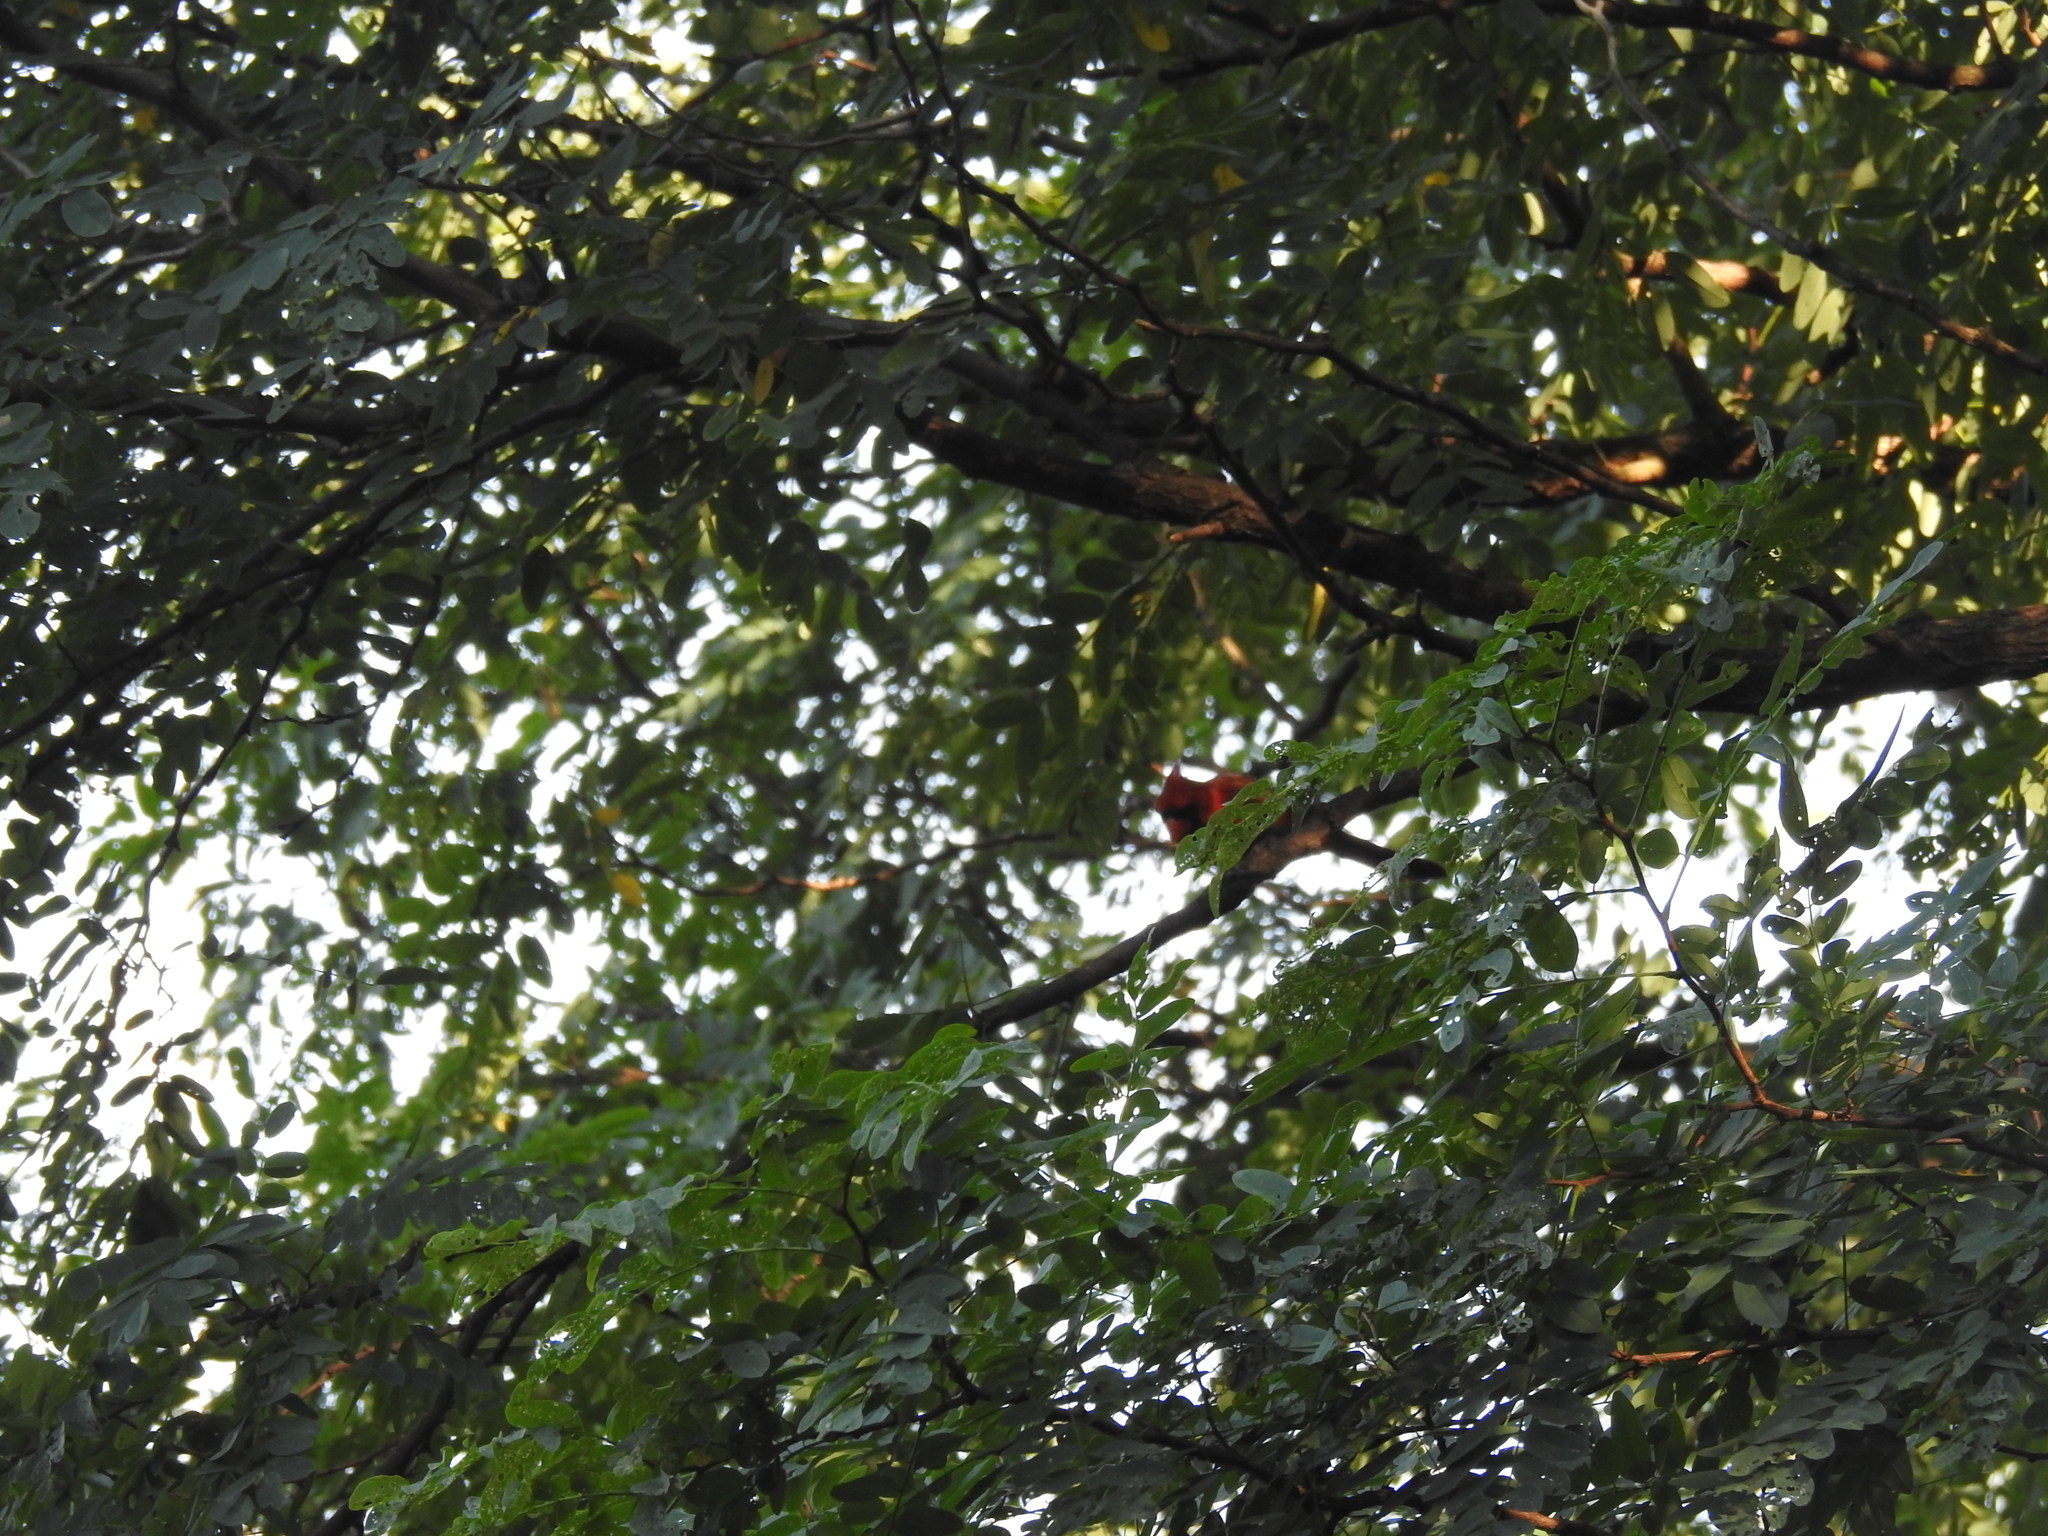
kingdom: Animalia
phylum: Chordata
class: Aves
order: Passeriformes
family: Cardinalidae
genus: Cardinalis
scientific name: Cardinalis cardinalis
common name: Northern cardinal
